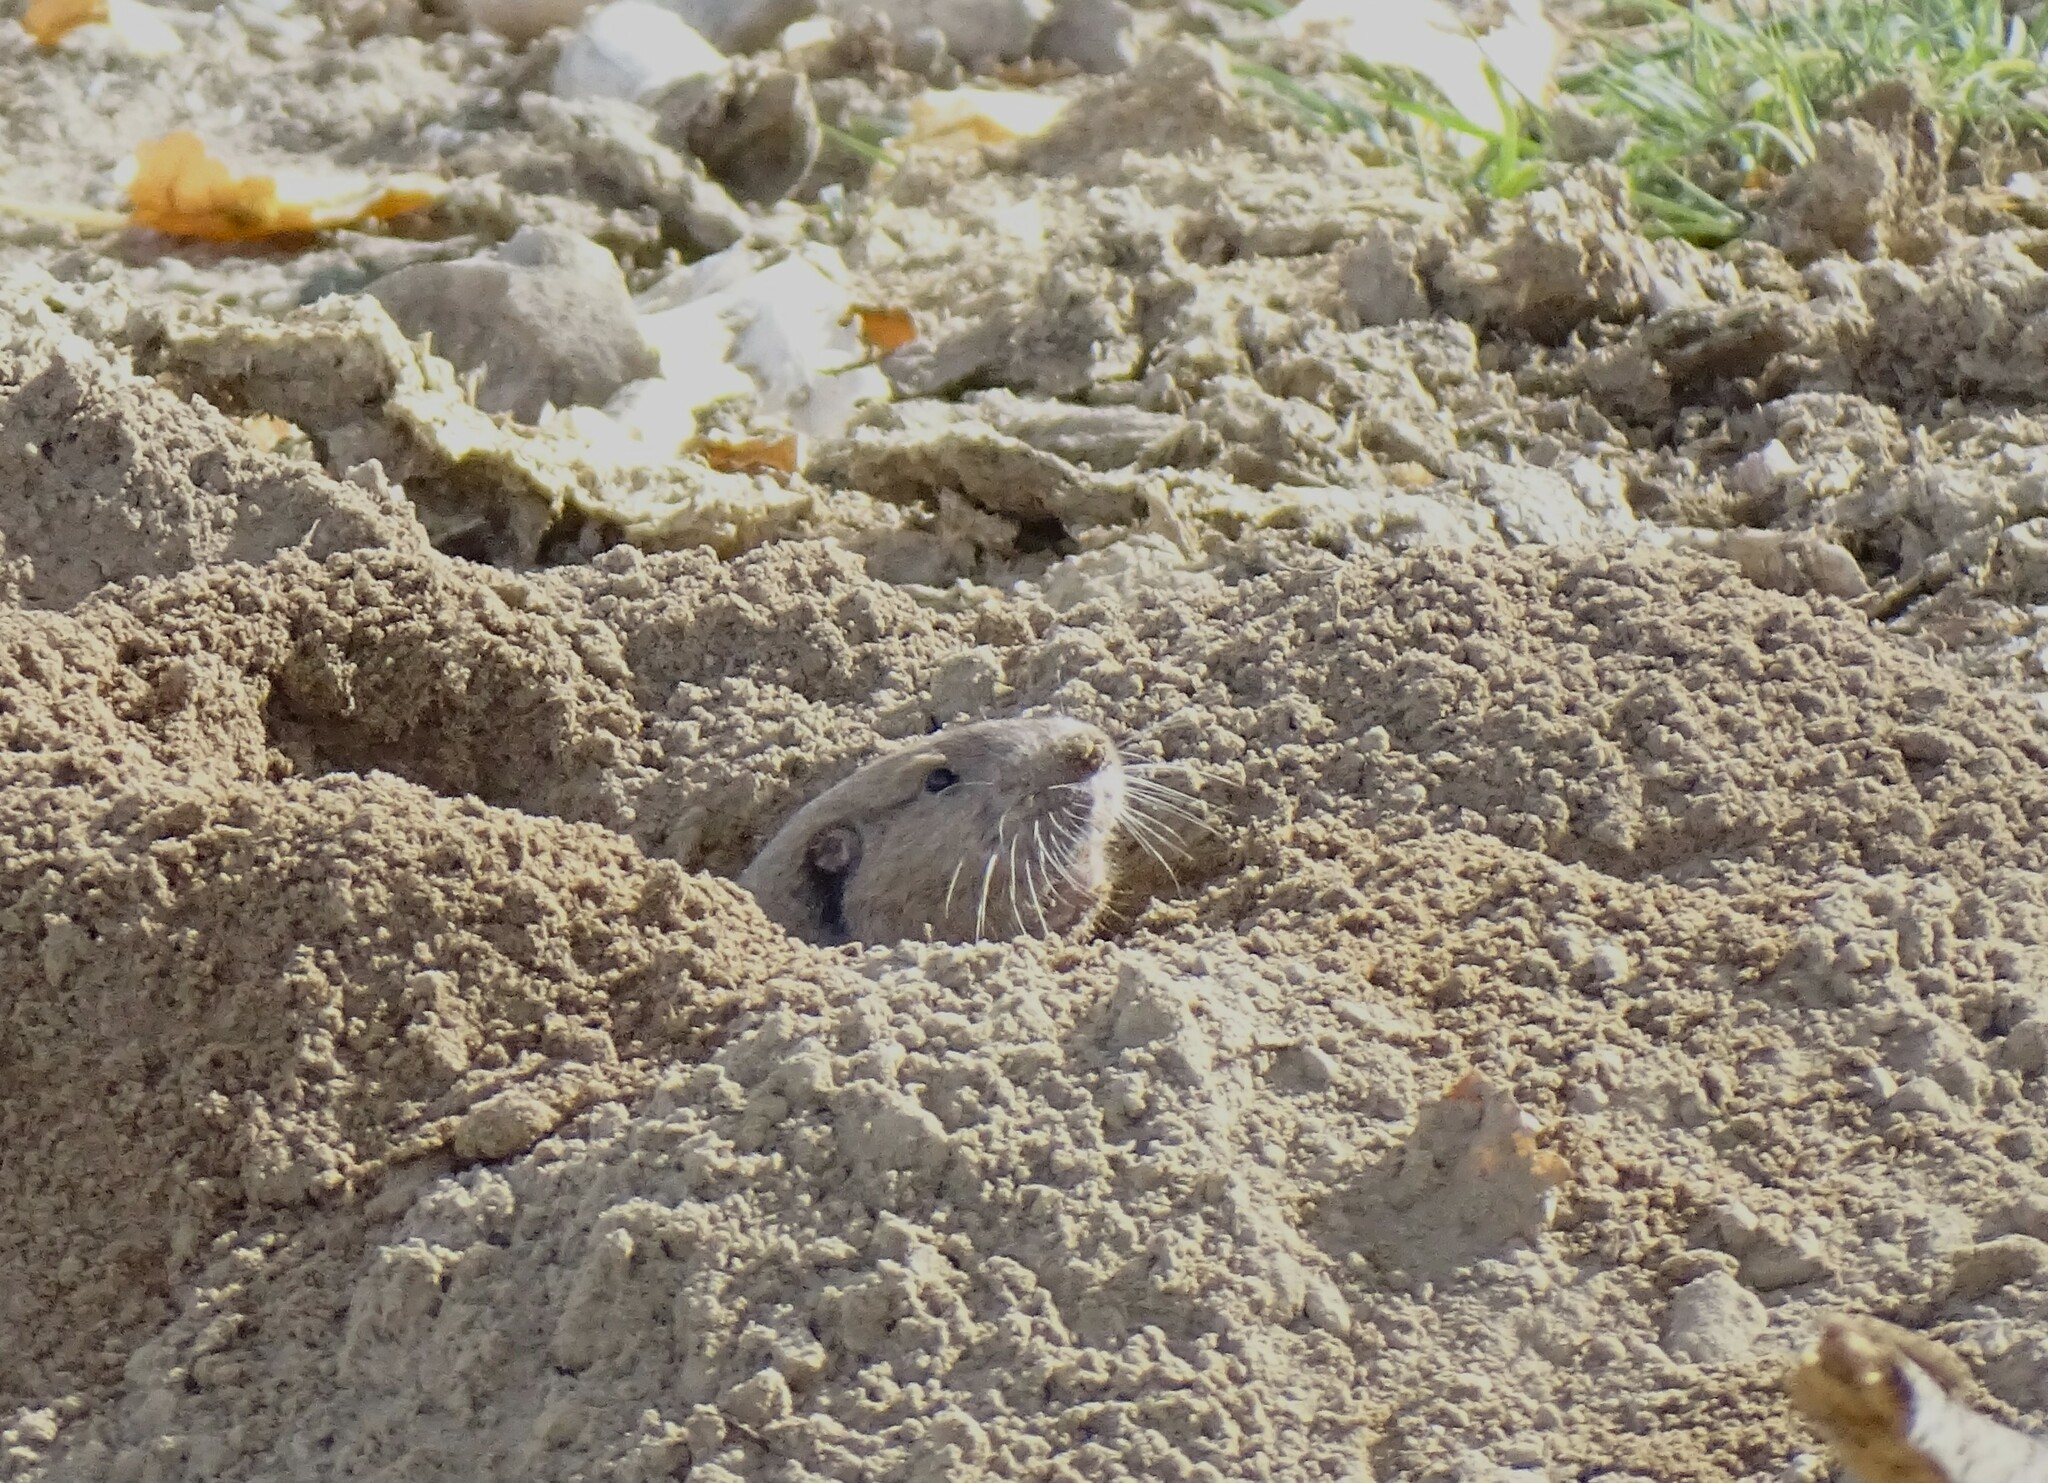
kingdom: Animalia
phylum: Chordata
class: Mammalia
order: Rodentia
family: Geomyidae
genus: Thomomys
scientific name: Thomomys bottae
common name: Botta's pocket gopher
